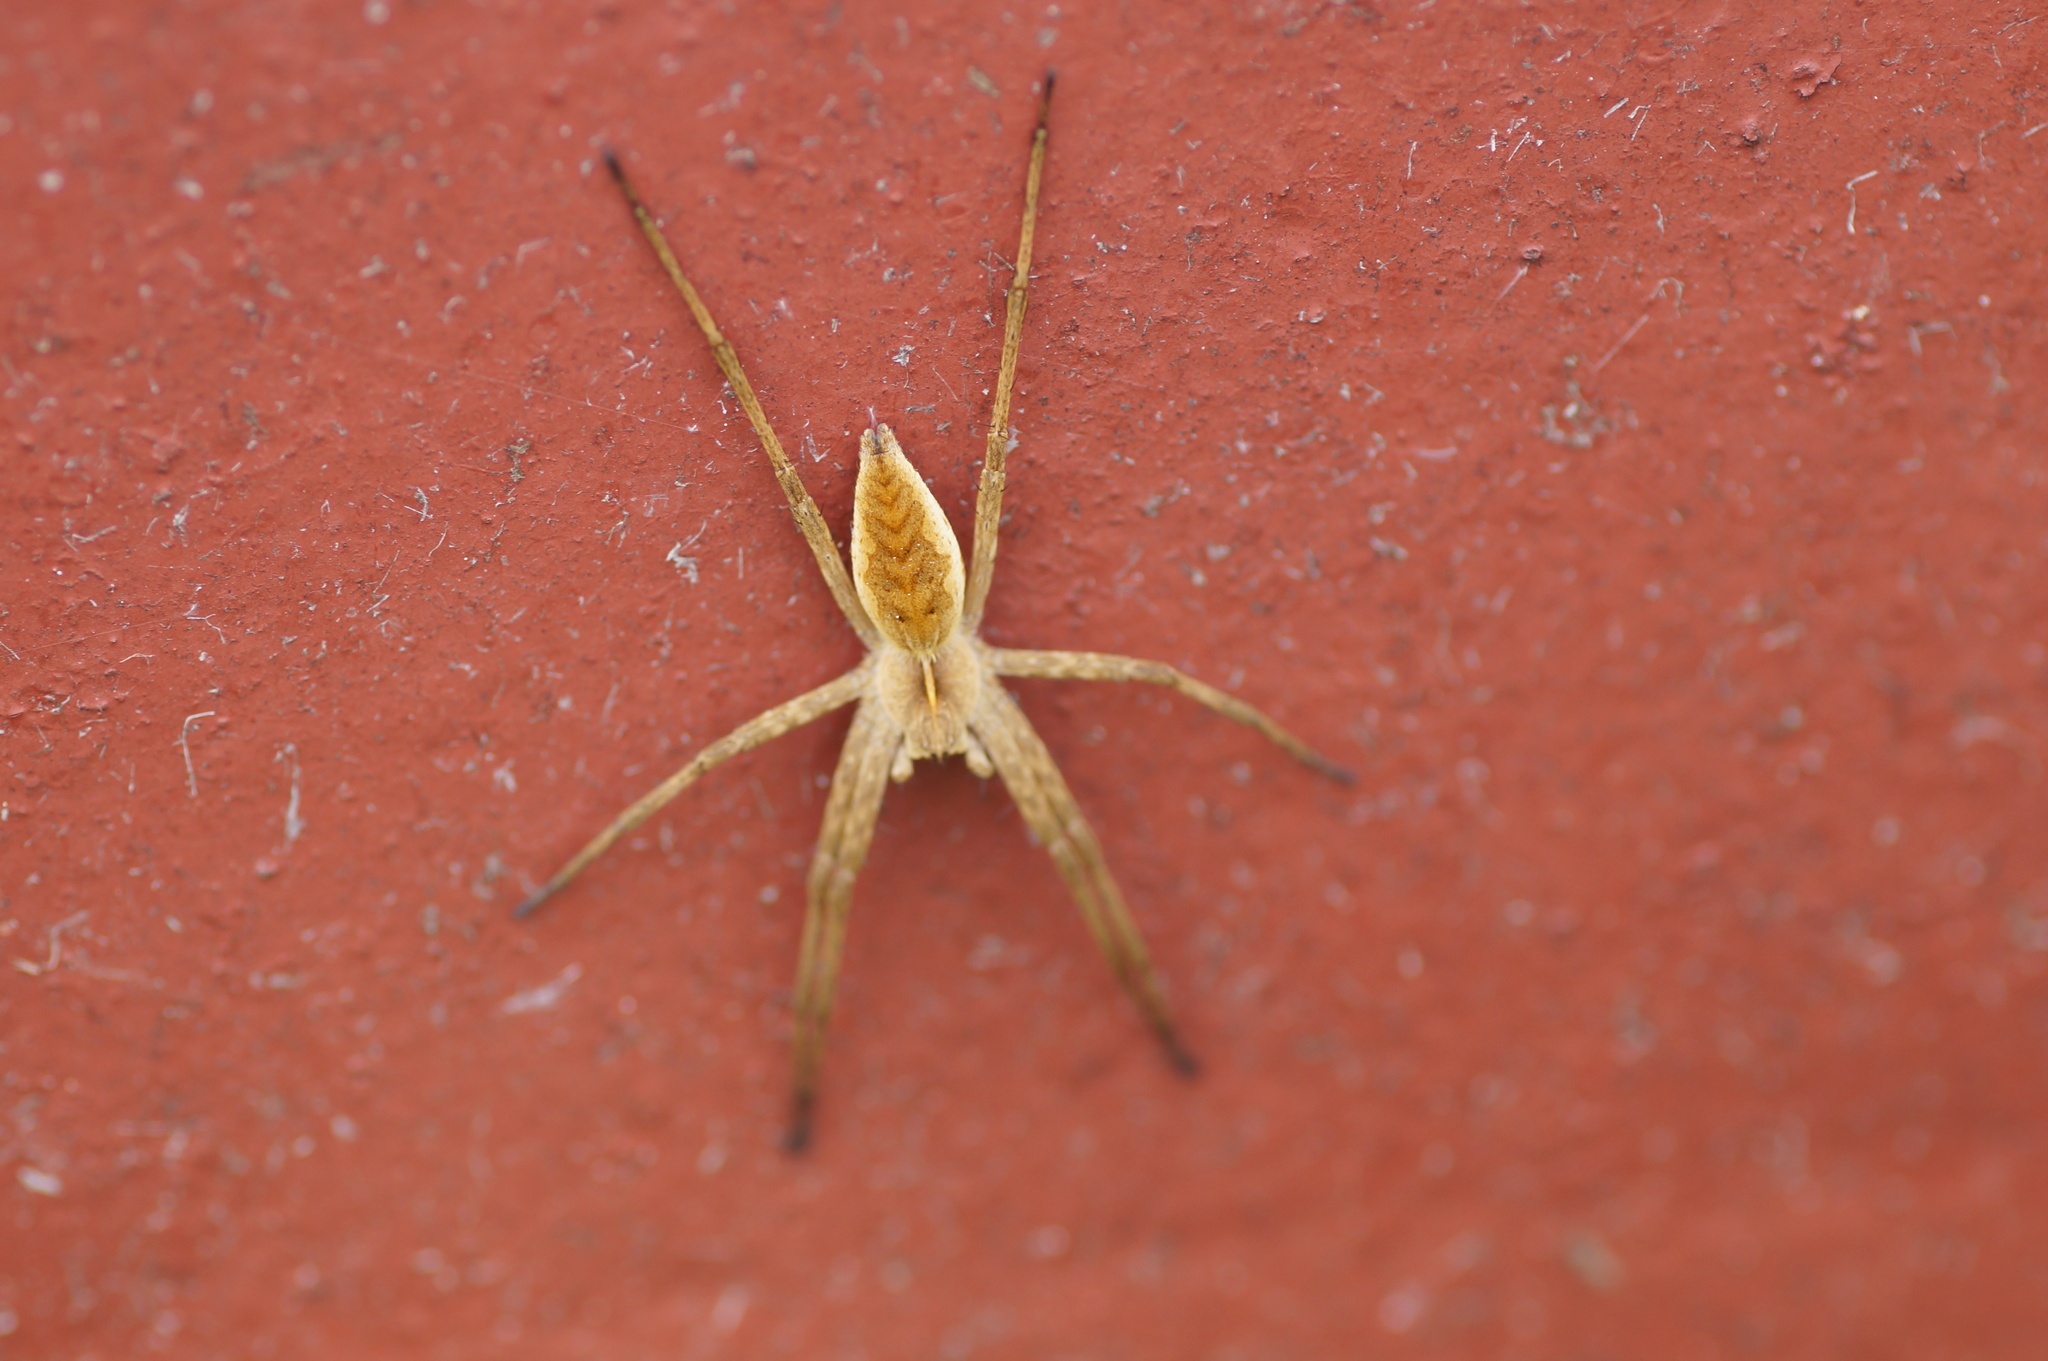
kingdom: Animalia
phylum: Arthropoda
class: Arachnida
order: Araneae
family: Pisauridae
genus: Pisaura
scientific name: Pisaura mirabilis
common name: Tent spider
